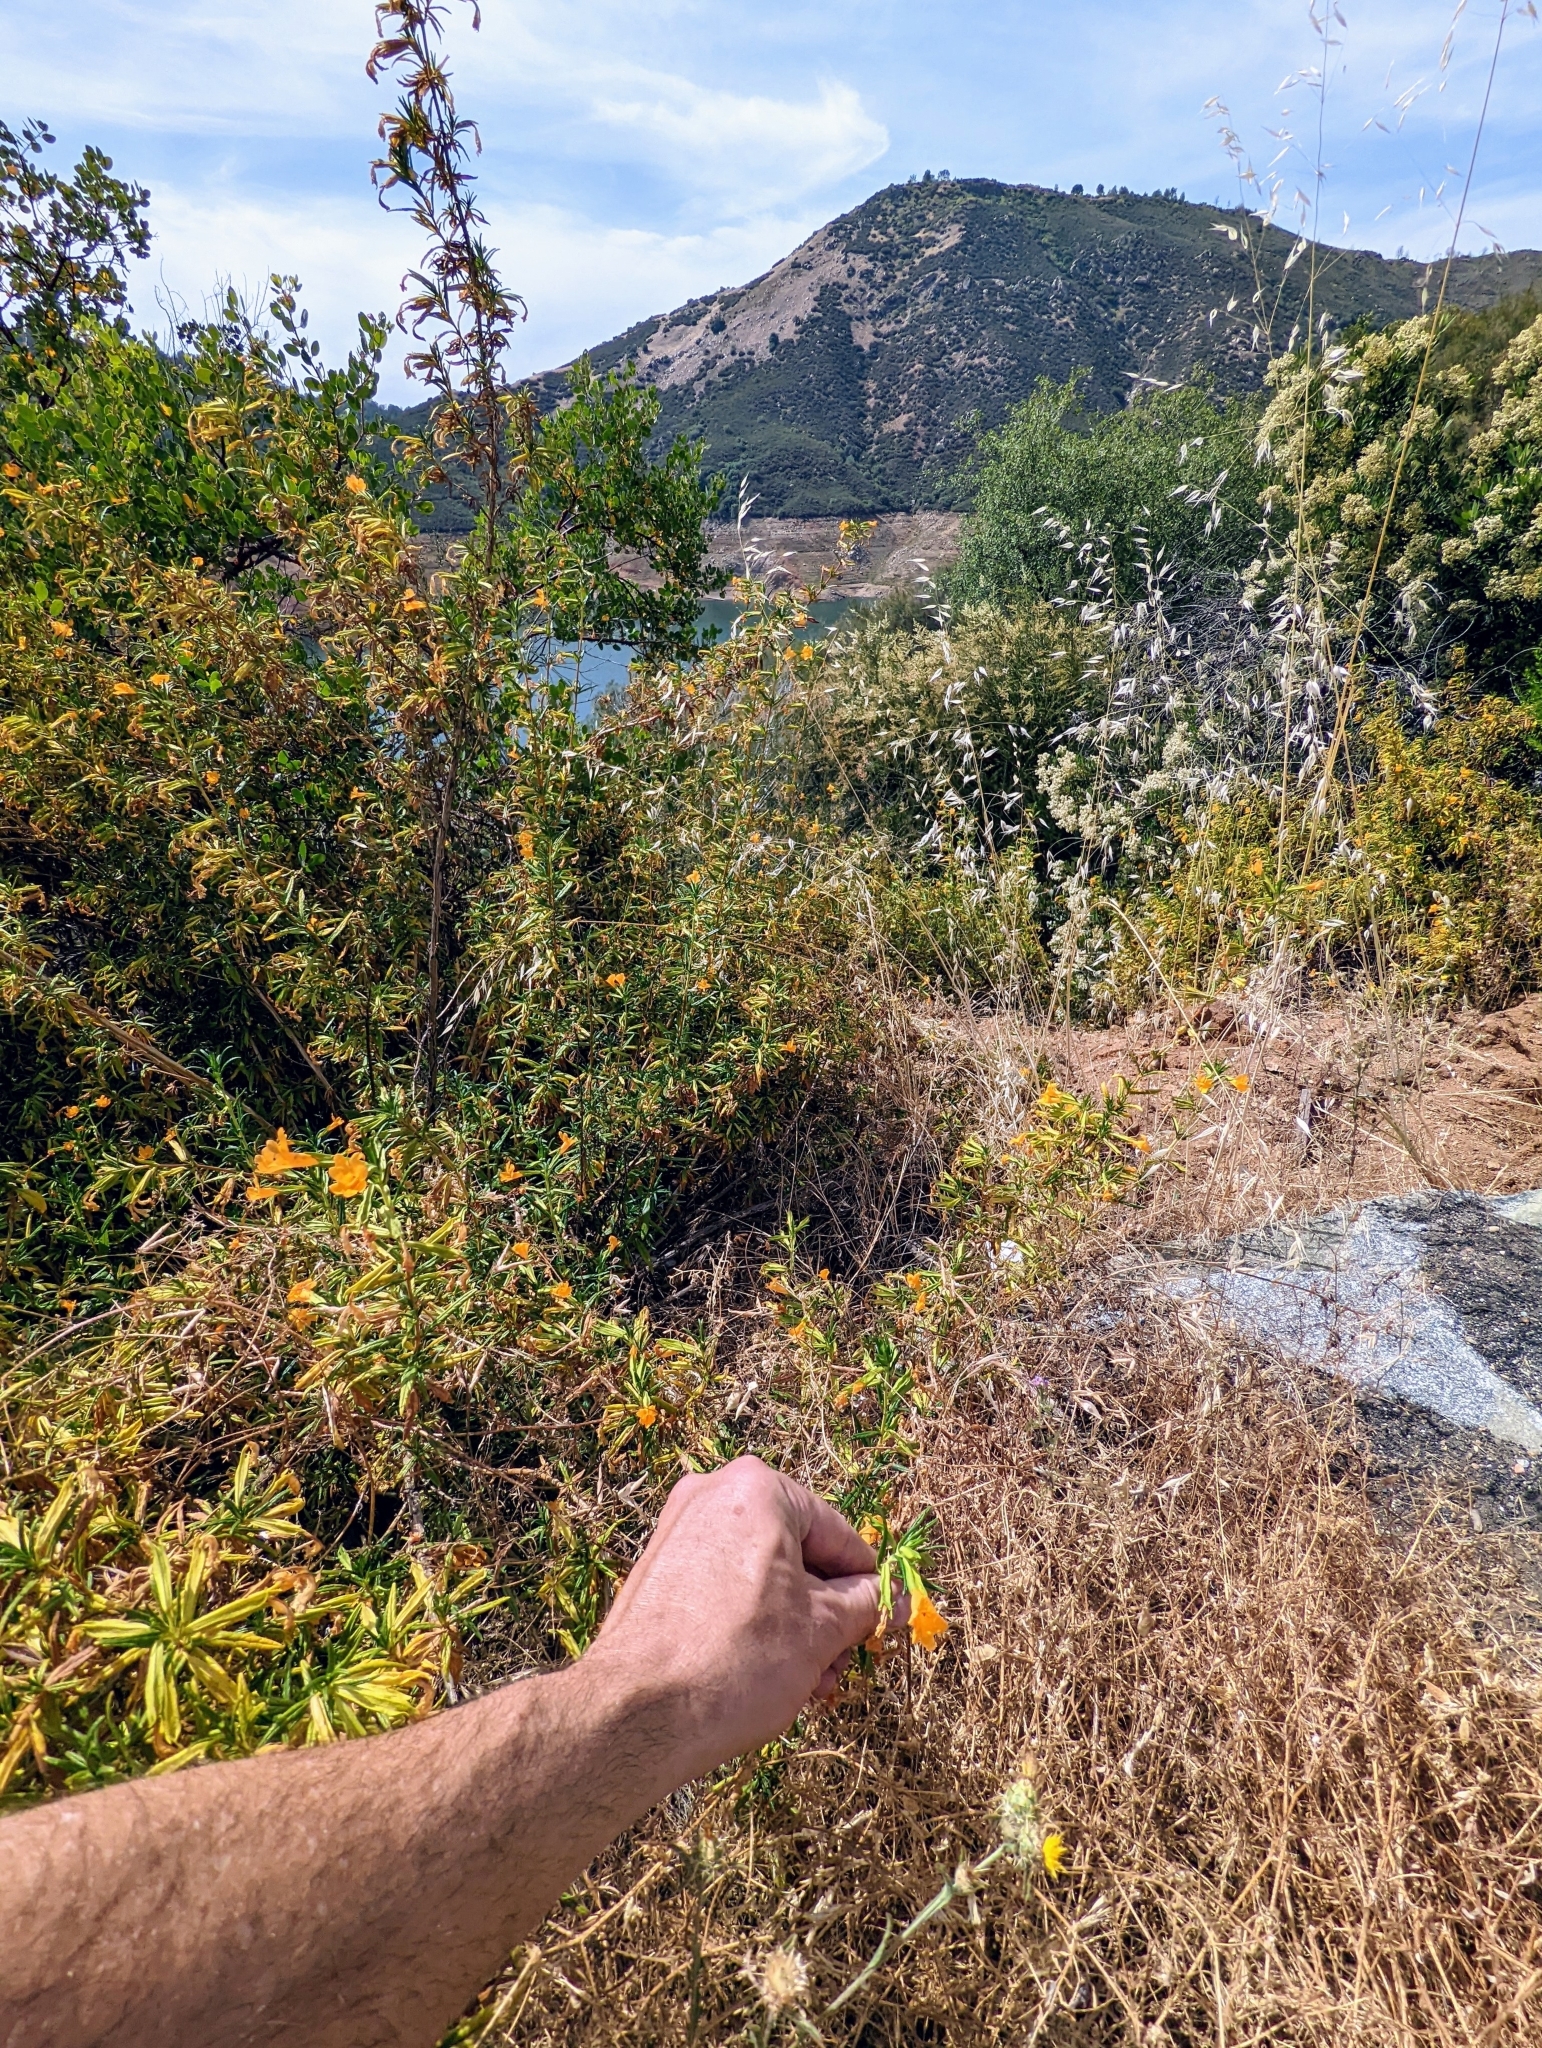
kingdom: Plantae
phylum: Tracheophyta
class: Magnoliopsida
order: Lamiales
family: Phrymaceae
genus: Diplacus
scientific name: Diplacus aurantiacus
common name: Bush monkey-flower
